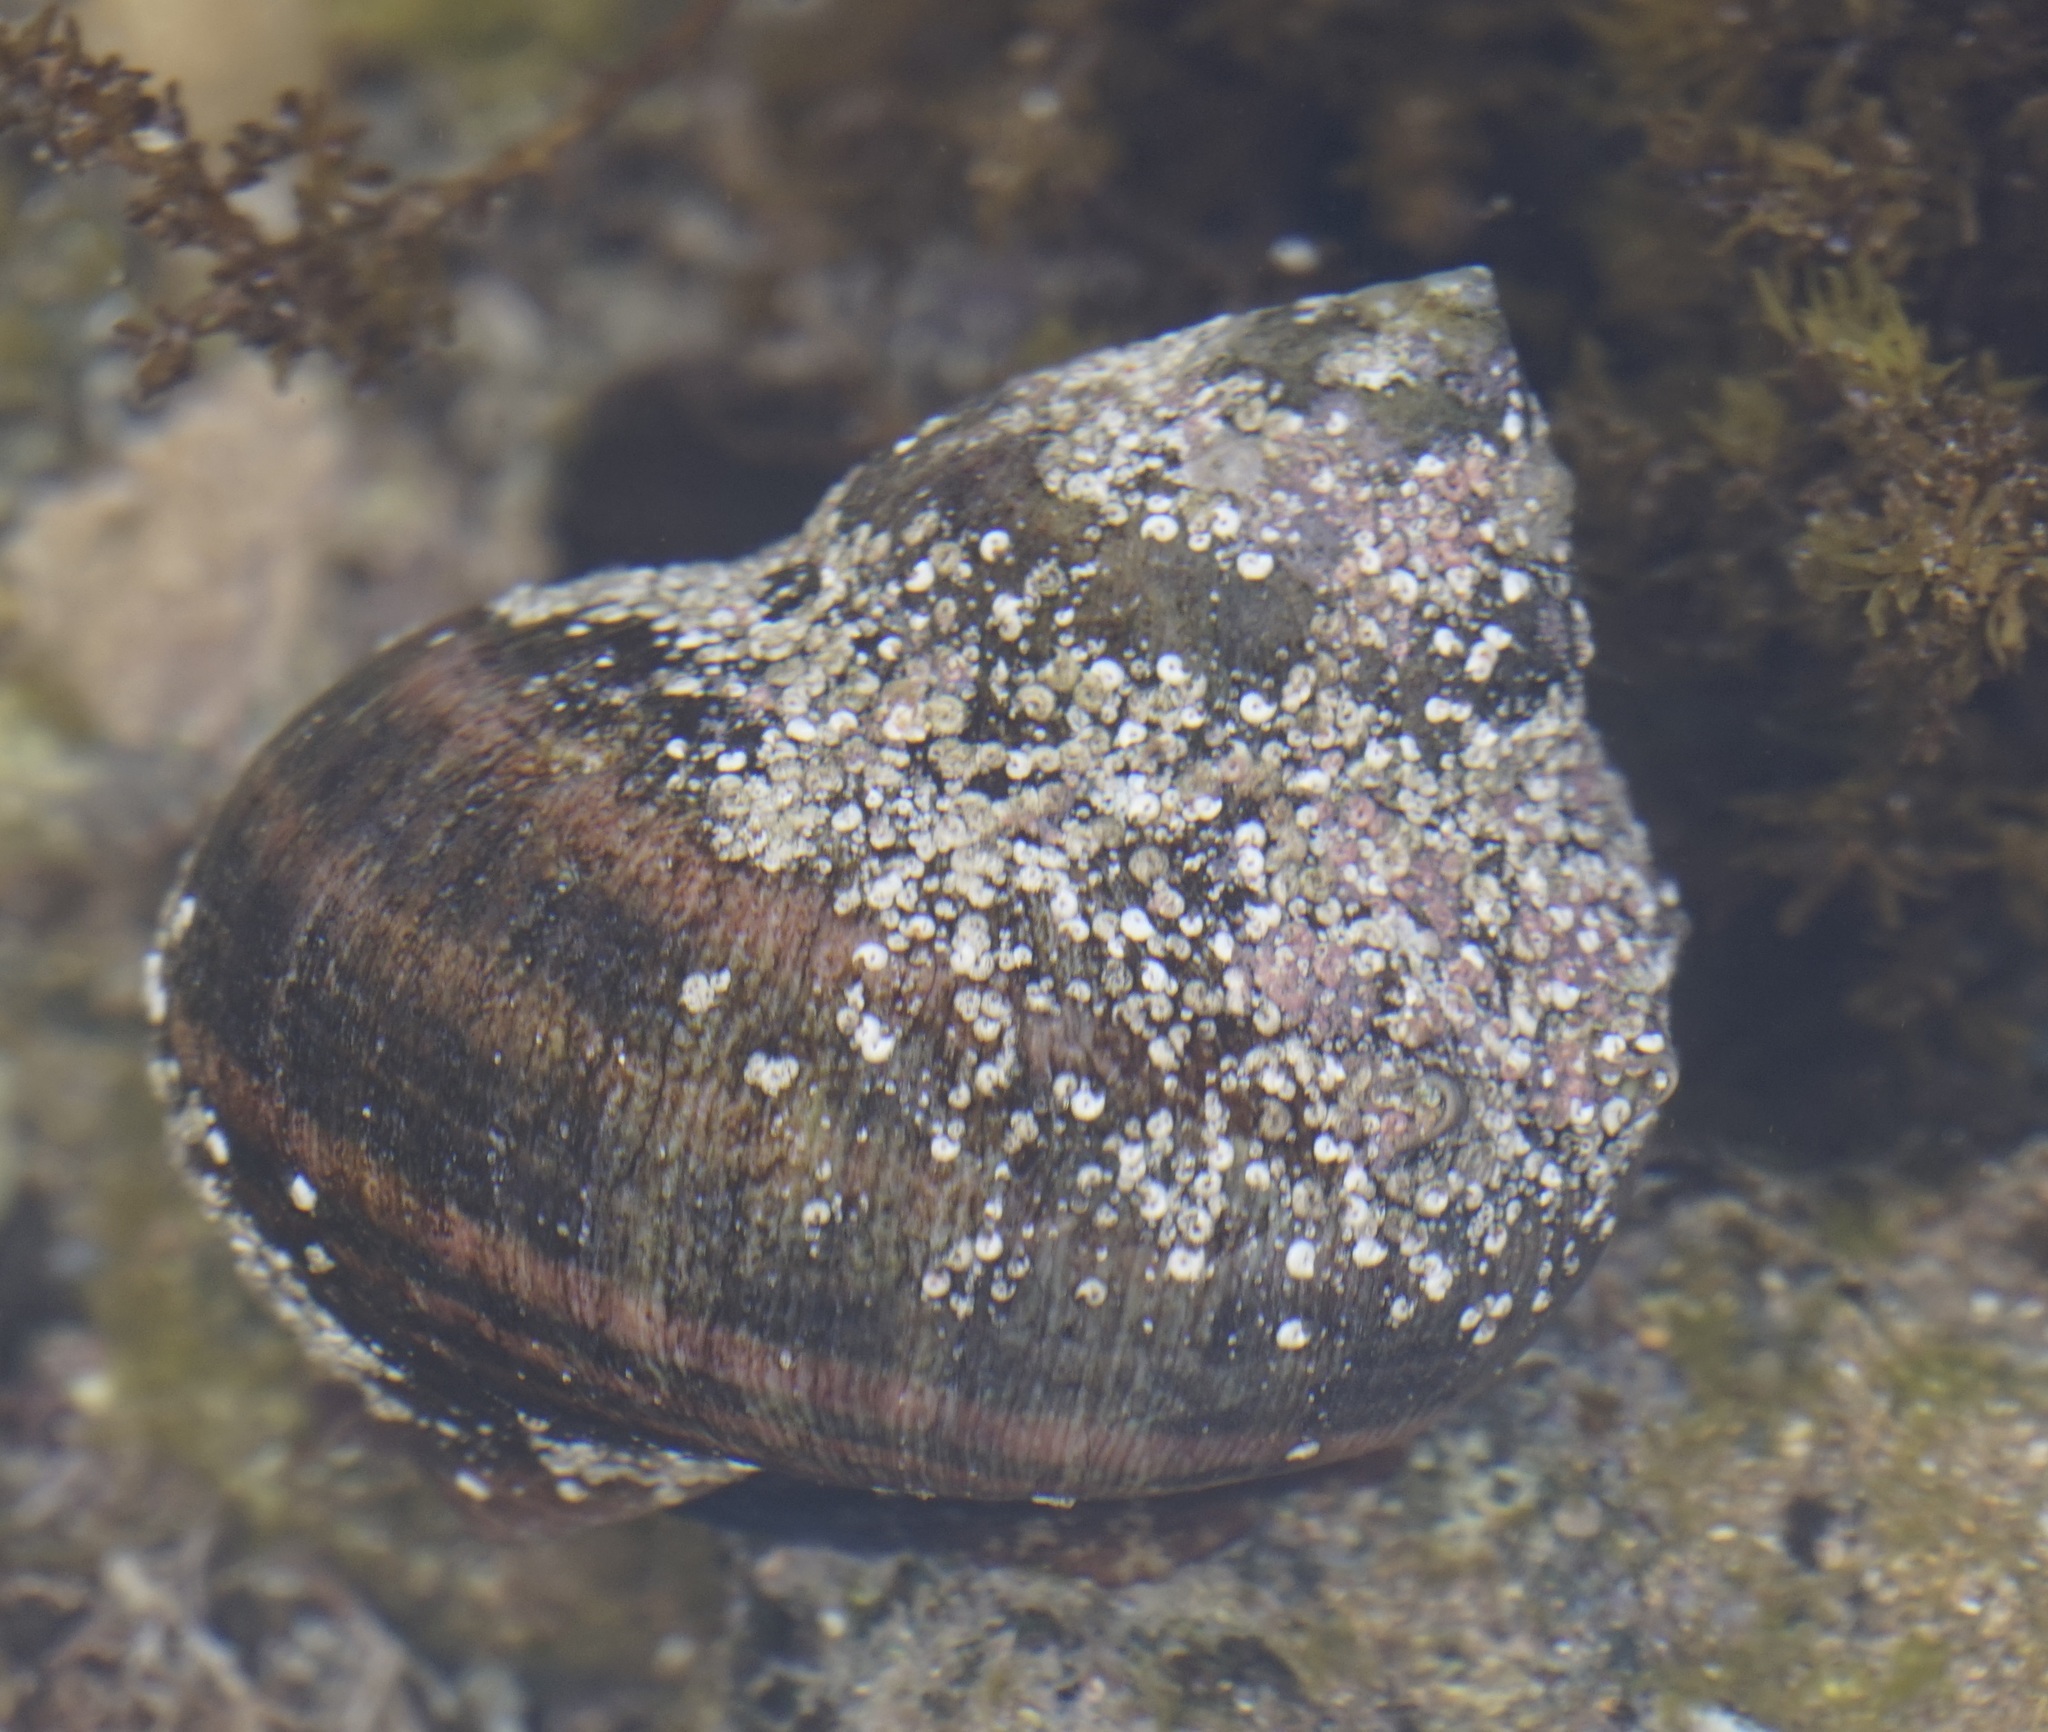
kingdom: Animalia
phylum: Mollusca
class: Gastropoda
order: Trochida
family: Turbinidae
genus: Turbo
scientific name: Turbo militaris
